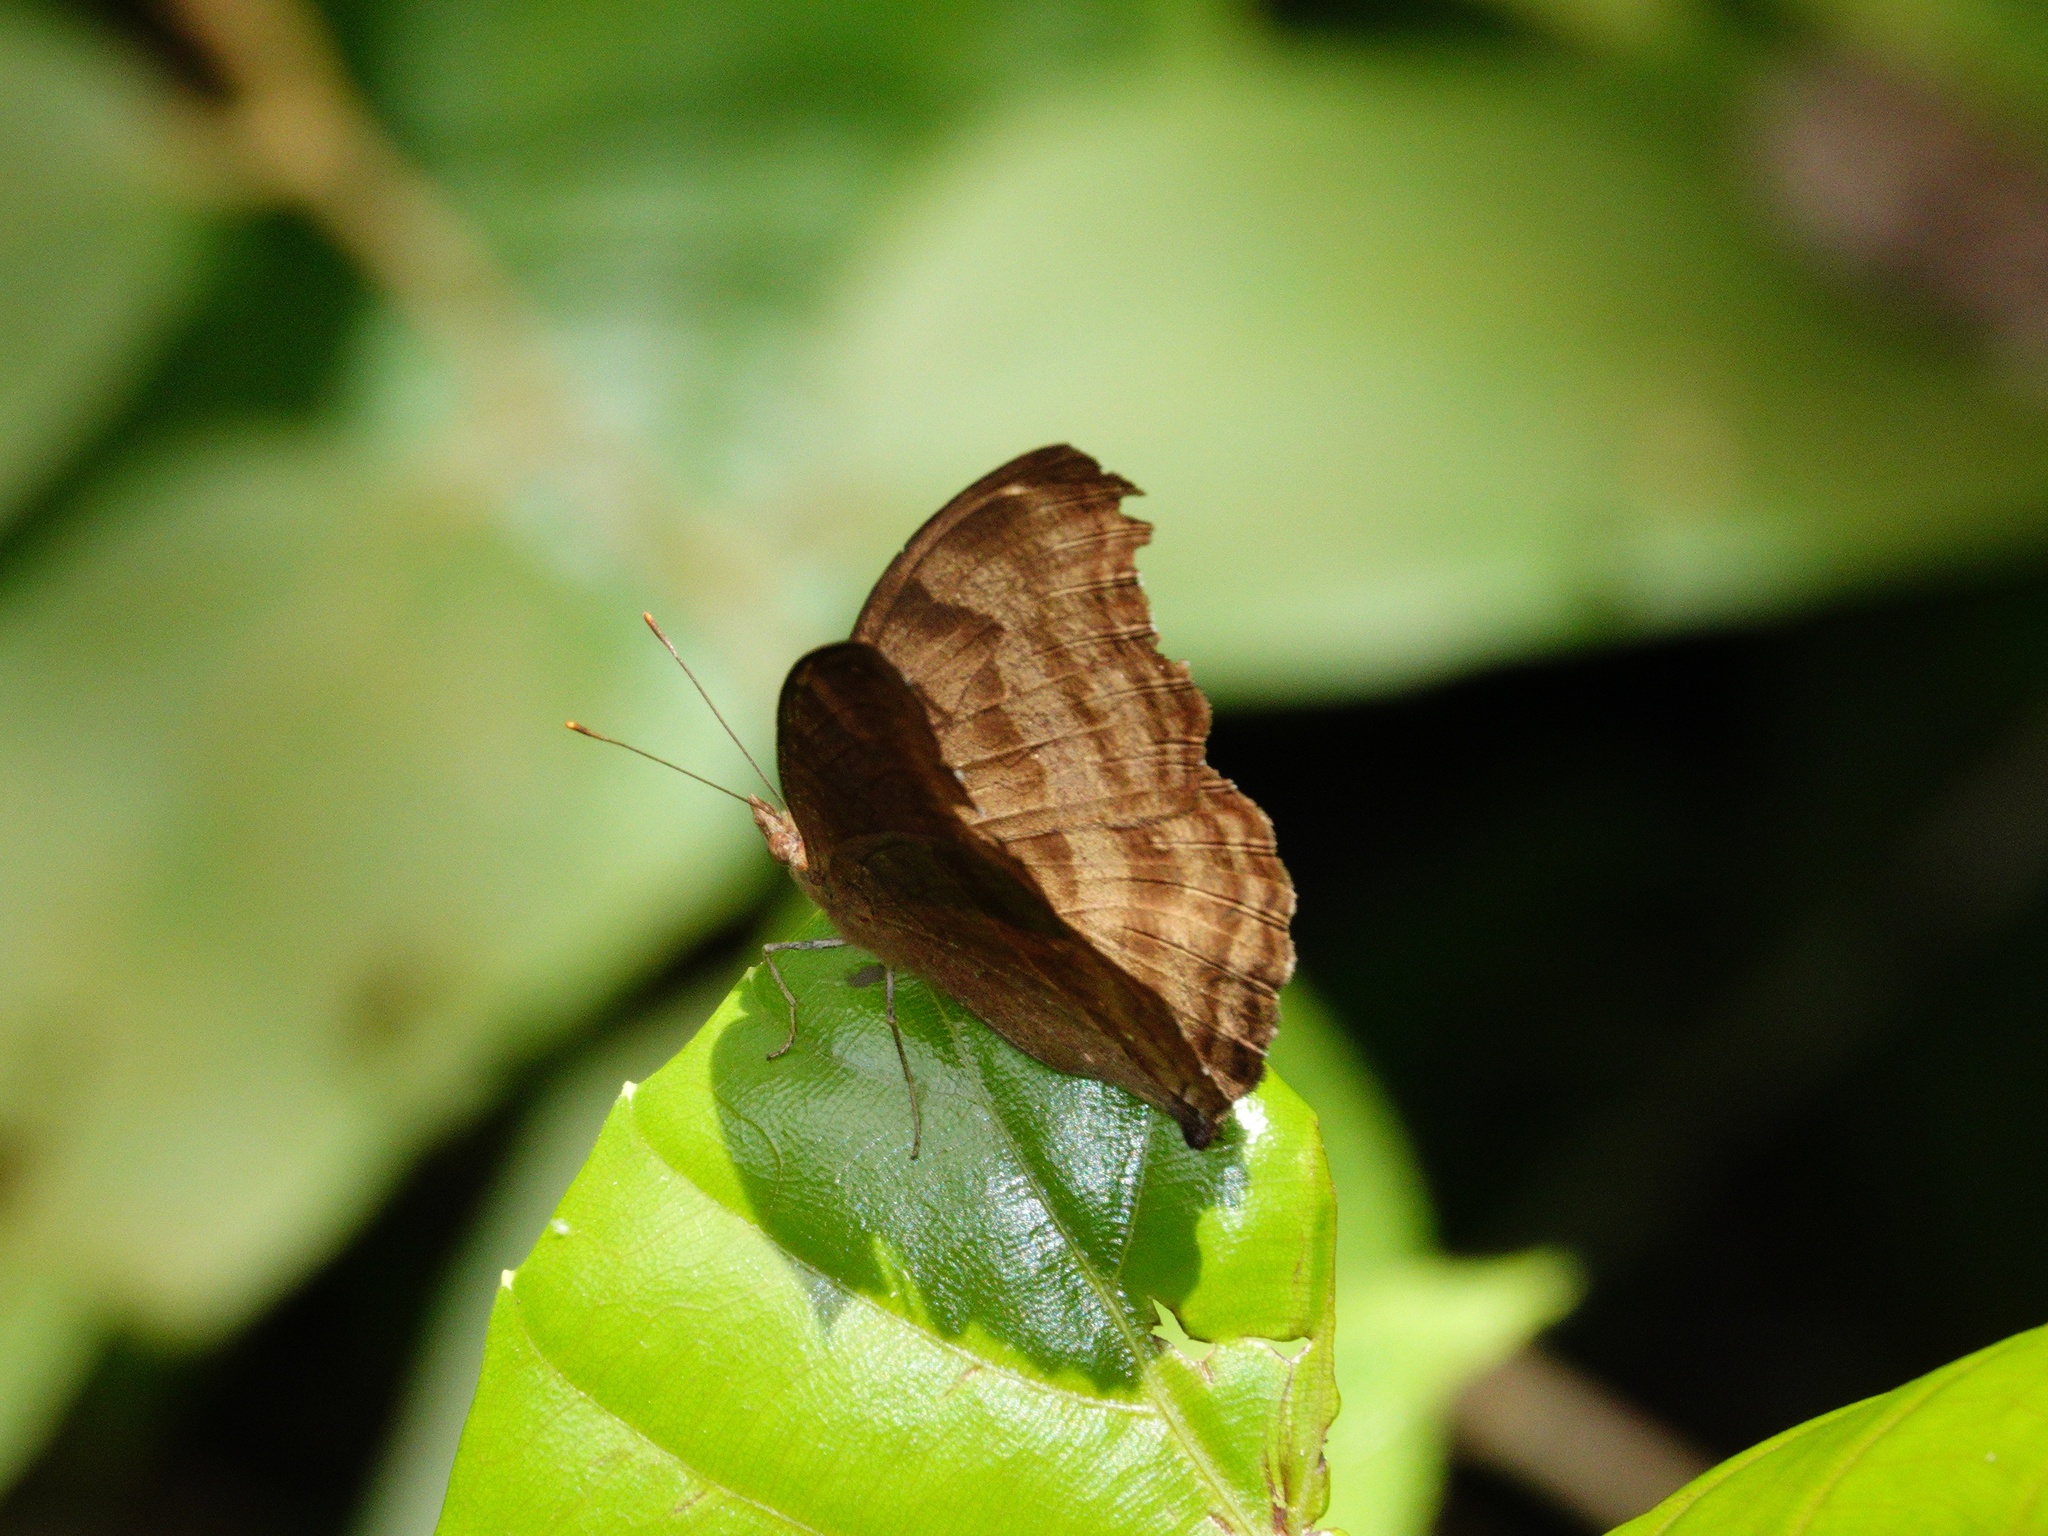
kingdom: Animalia
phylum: Arthropoda
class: Insecta
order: Lepidoptera
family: Nymphalidae
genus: Junonia
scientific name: Junonia iphita
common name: Chocolate pansy
